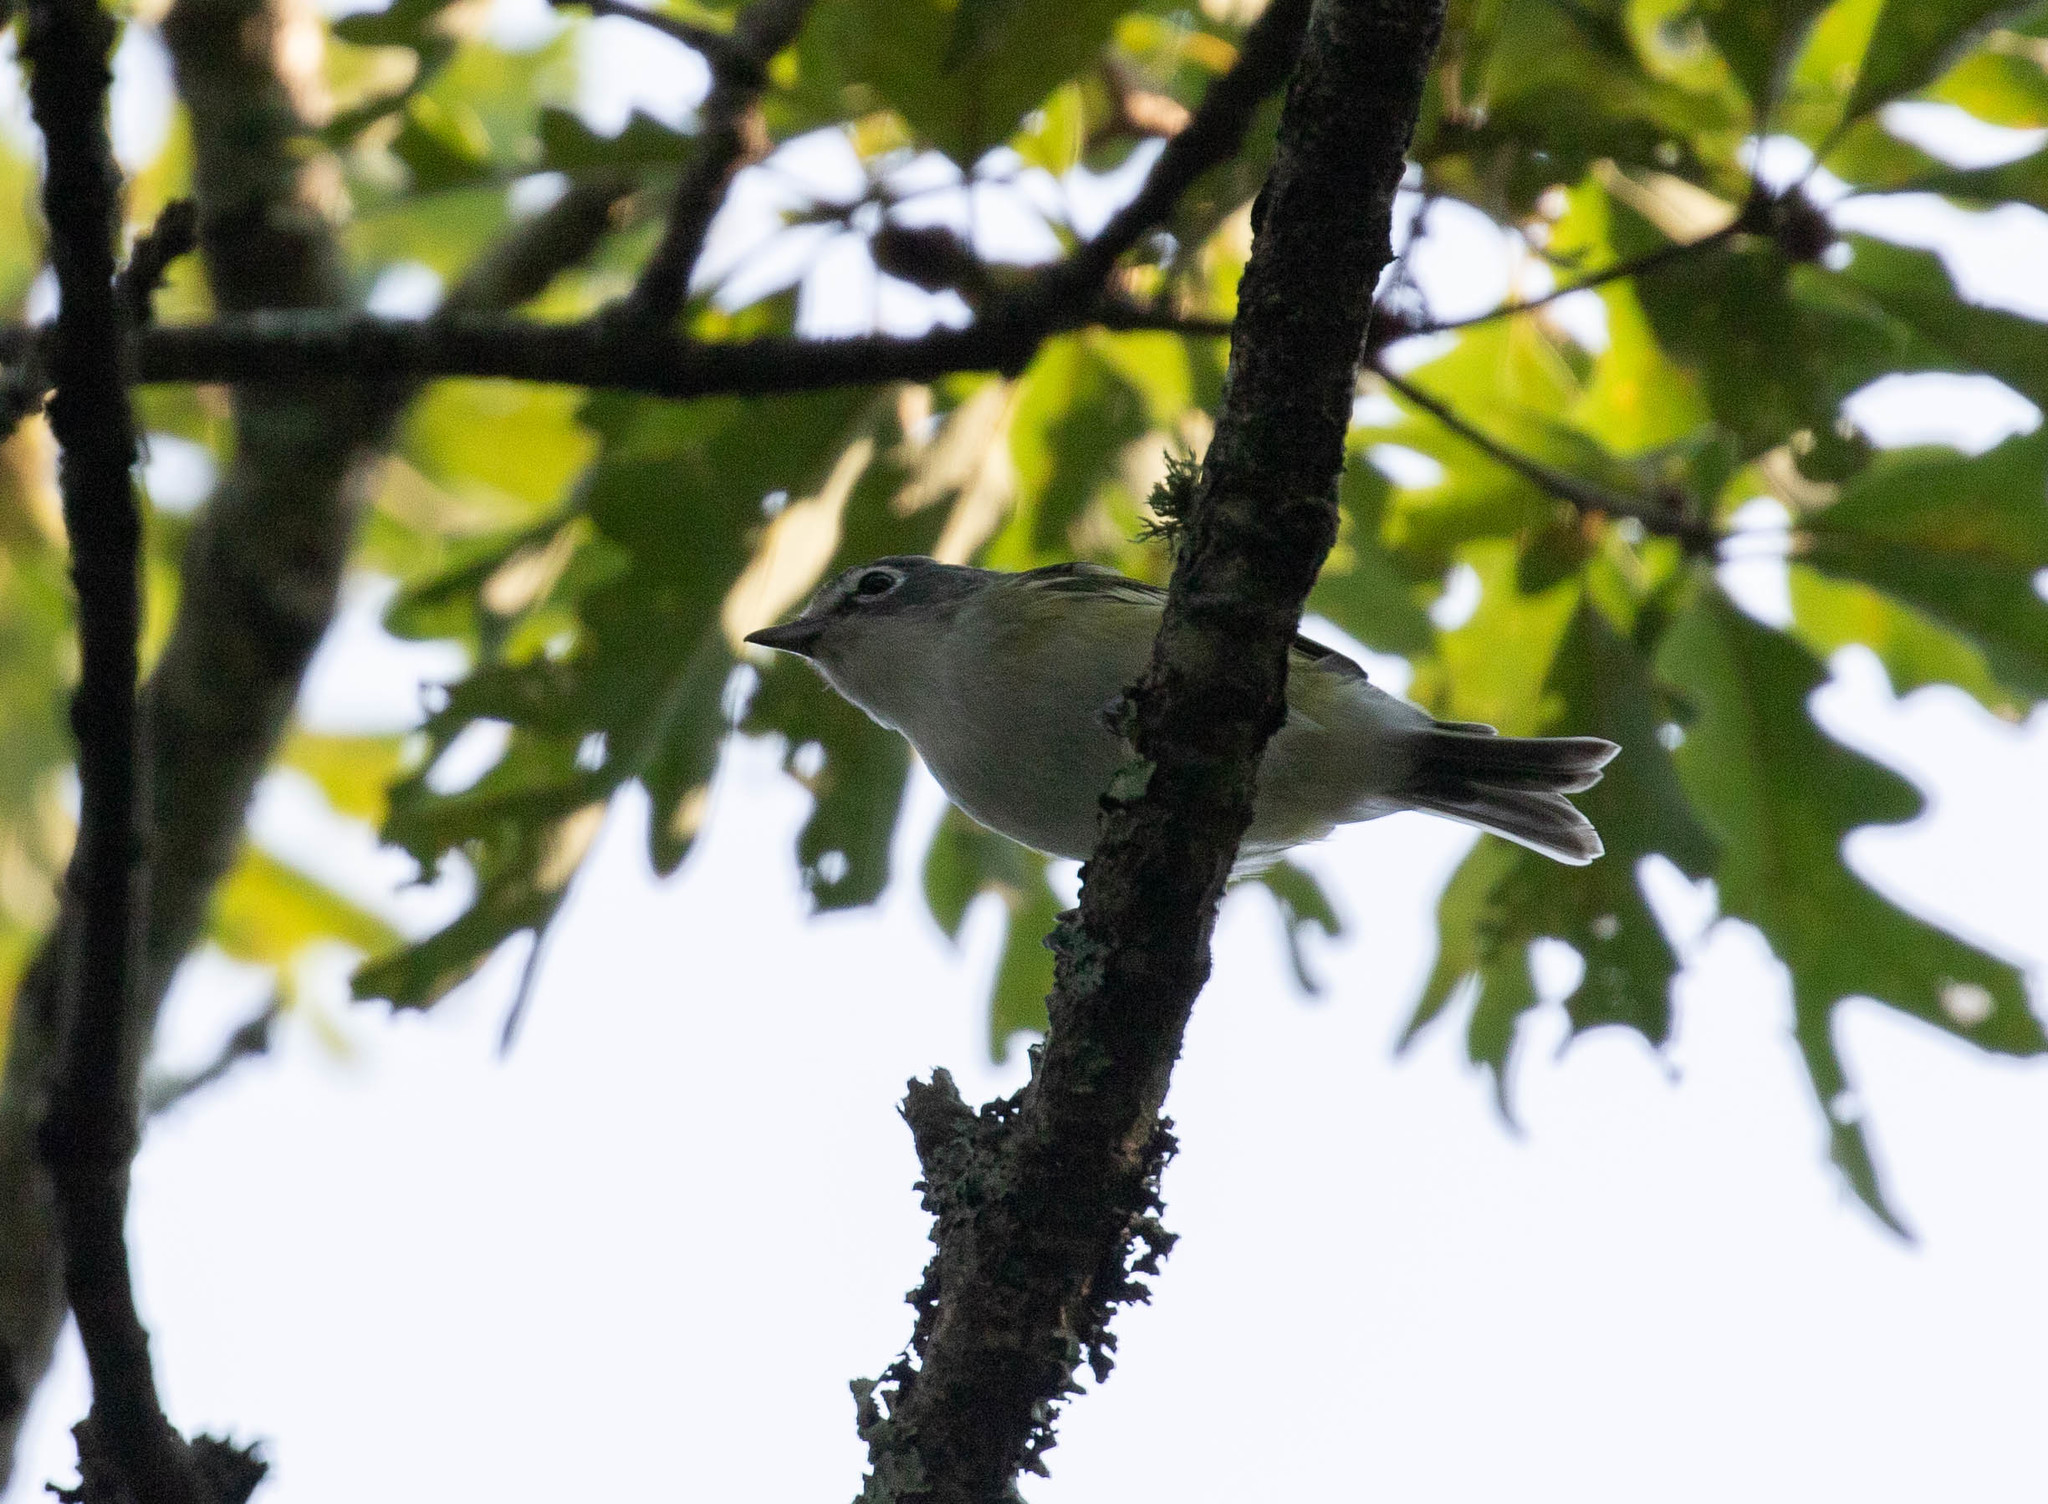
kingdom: Animalia
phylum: Chordata
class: Aves
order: Passeriformes
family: Vireonidae
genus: Vireo
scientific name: Vireo solitarius
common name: Blue-headed vireo
